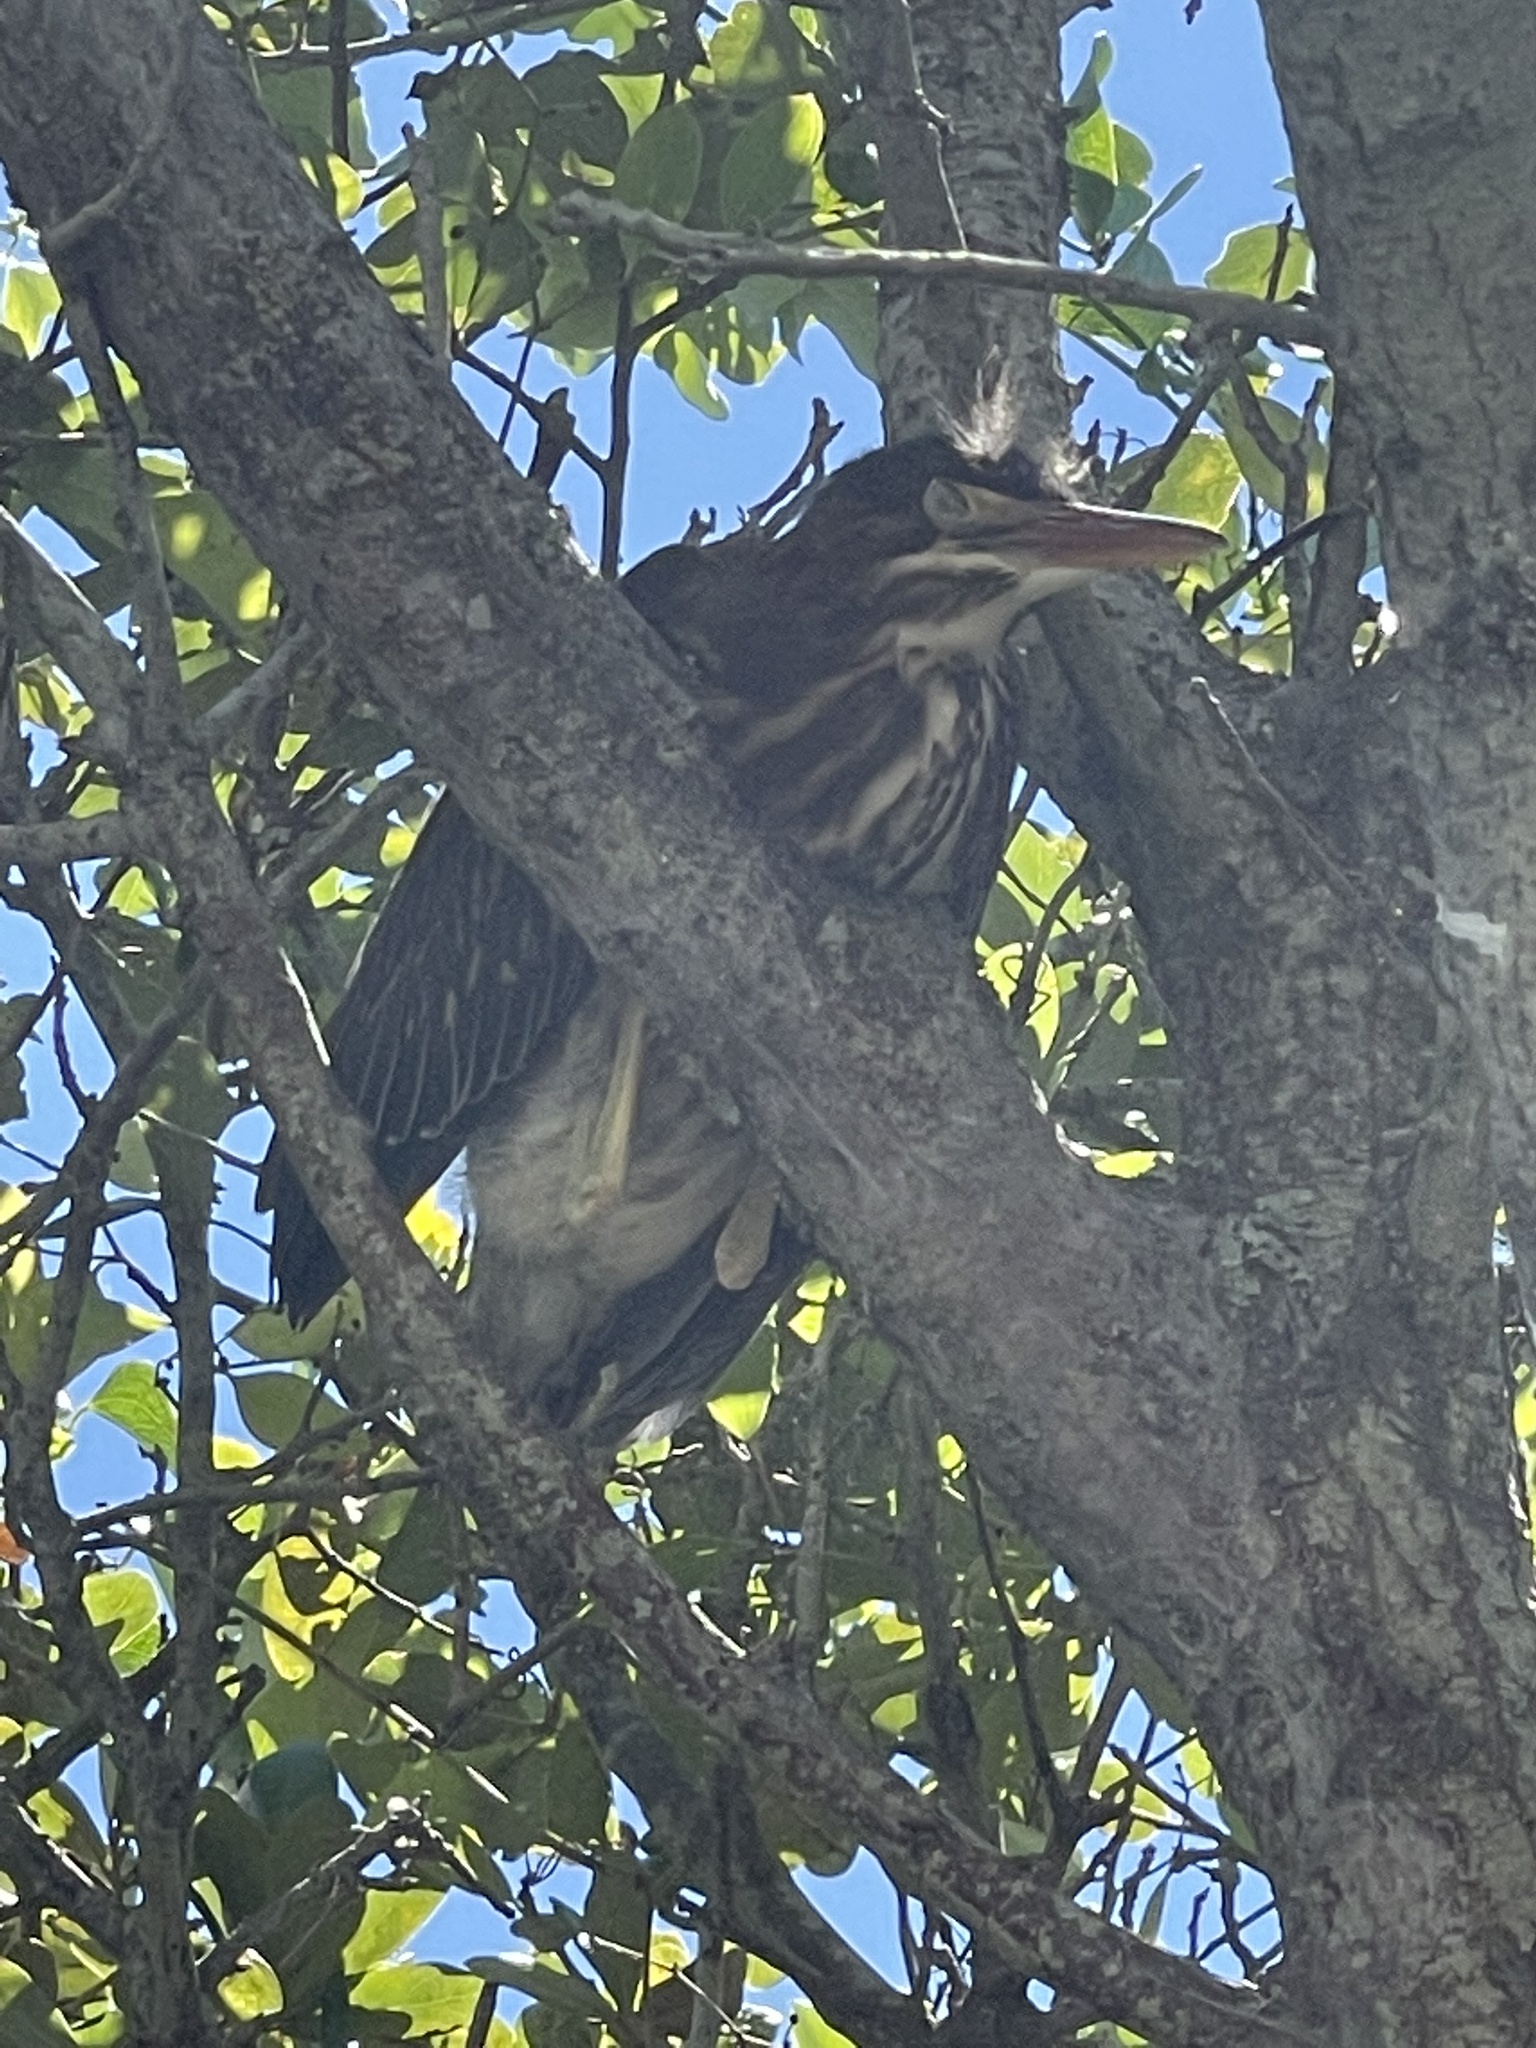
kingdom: Animalia
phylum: Chordata
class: Aves
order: Pelecaniformes
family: Ardeidae
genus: Butorides
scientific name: Butorides virescens
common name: Green heron
